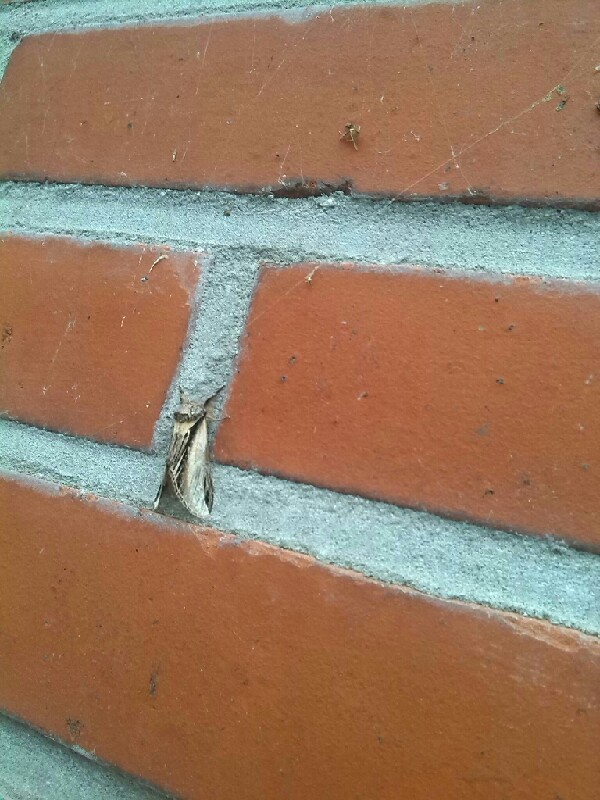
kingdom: Animalia
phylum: Arthropoda
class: Insecta
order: Lepidoptera
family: Notodontidae
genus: Pheosia
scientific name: Pheosia tremula
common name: Swallow prominent
